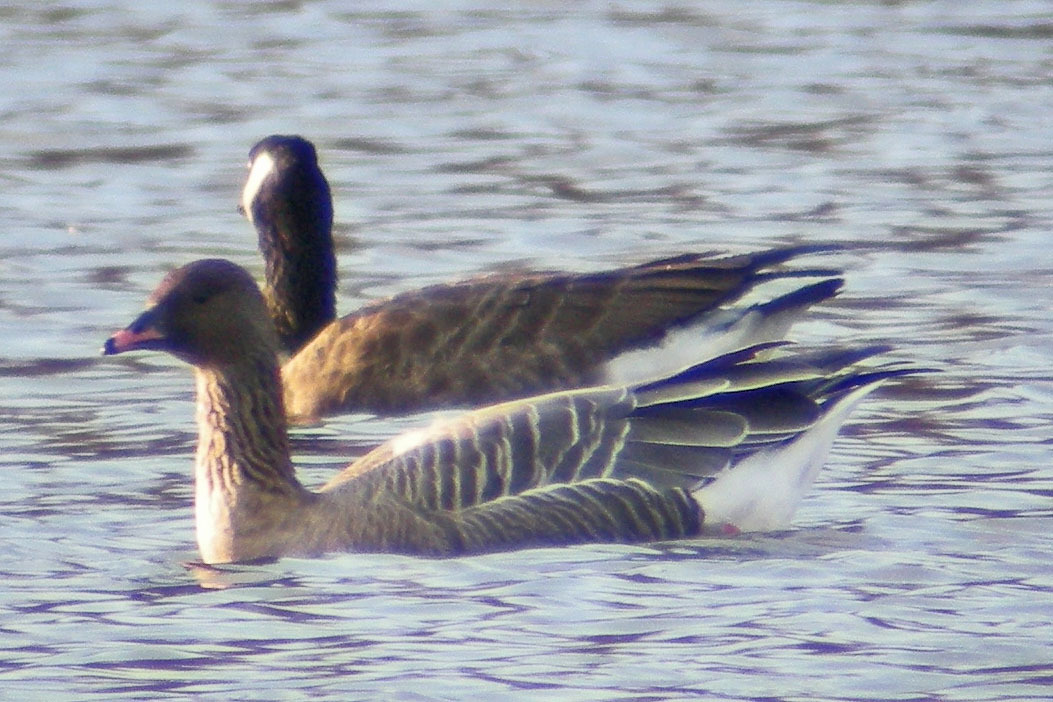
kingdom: Animalia
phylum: Chordata
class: Aves
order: Anseriformes
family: Anatidae
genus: Anser
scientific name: Anser brachyrhynchus
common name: Pink-footed goose
